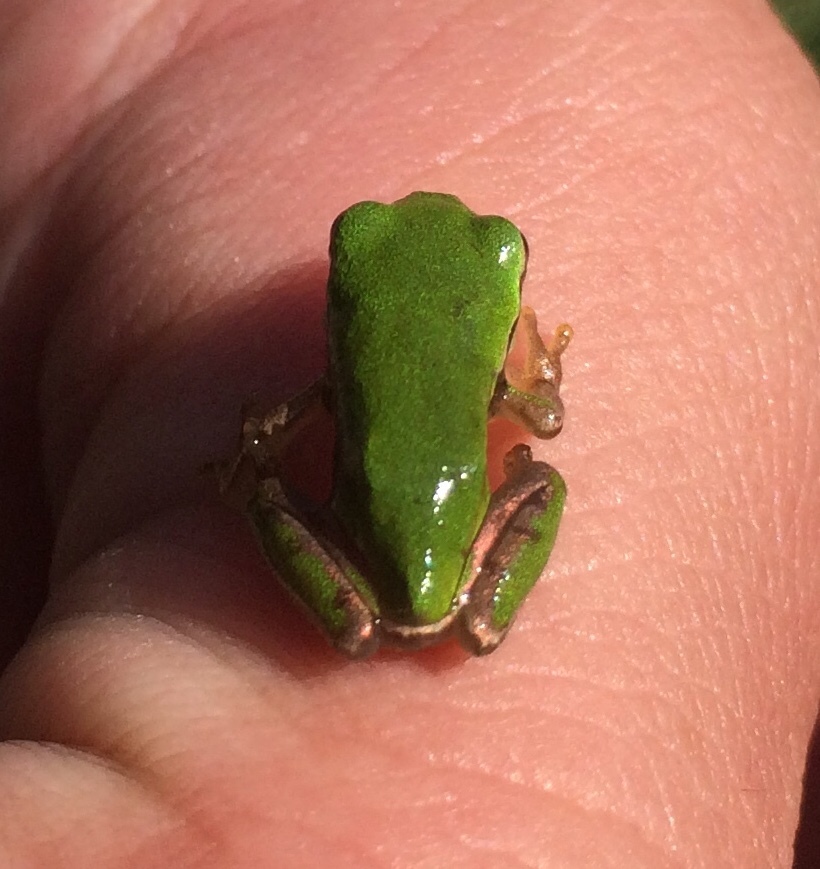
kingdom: Animalia
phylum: Chordata
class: Amphibia
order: Anura
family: Hylidae
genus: Dryophytes
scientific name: Dryophytes eximius
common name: Mountain treefrog
